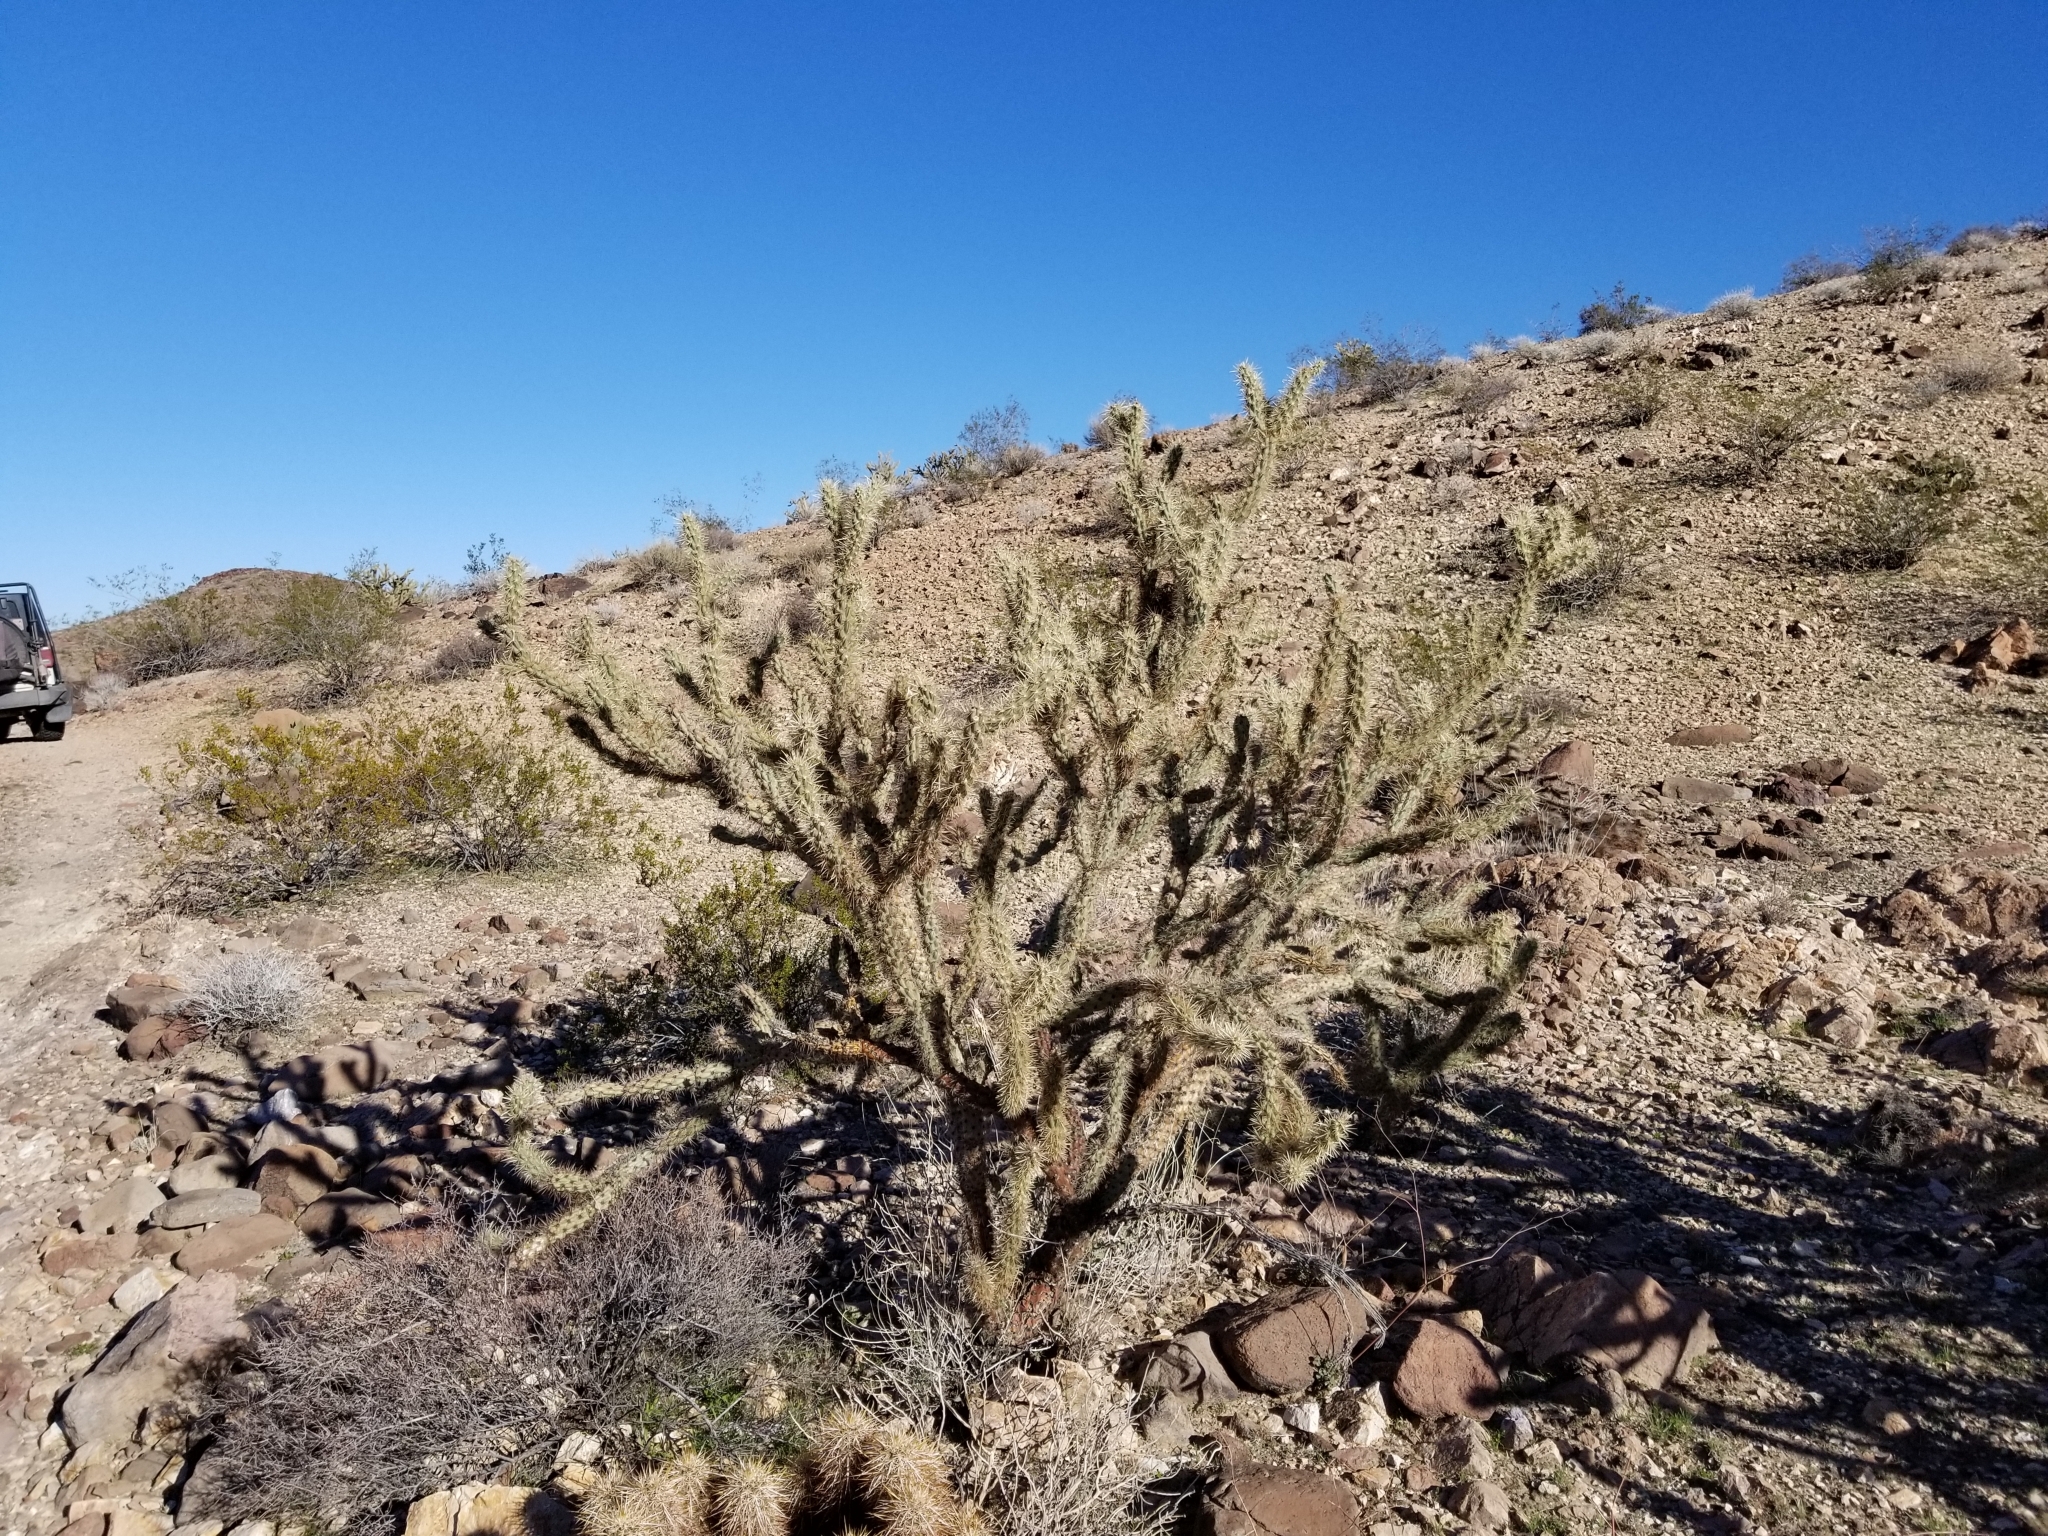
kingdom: Plantae
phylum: Tracheophyta
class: Magnoliopsida
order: Caryophyllales
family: Cactaceae
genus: Cylindropuntia
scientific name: Cylindropuntia acanthocarpa
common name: Buckhorn cholla
